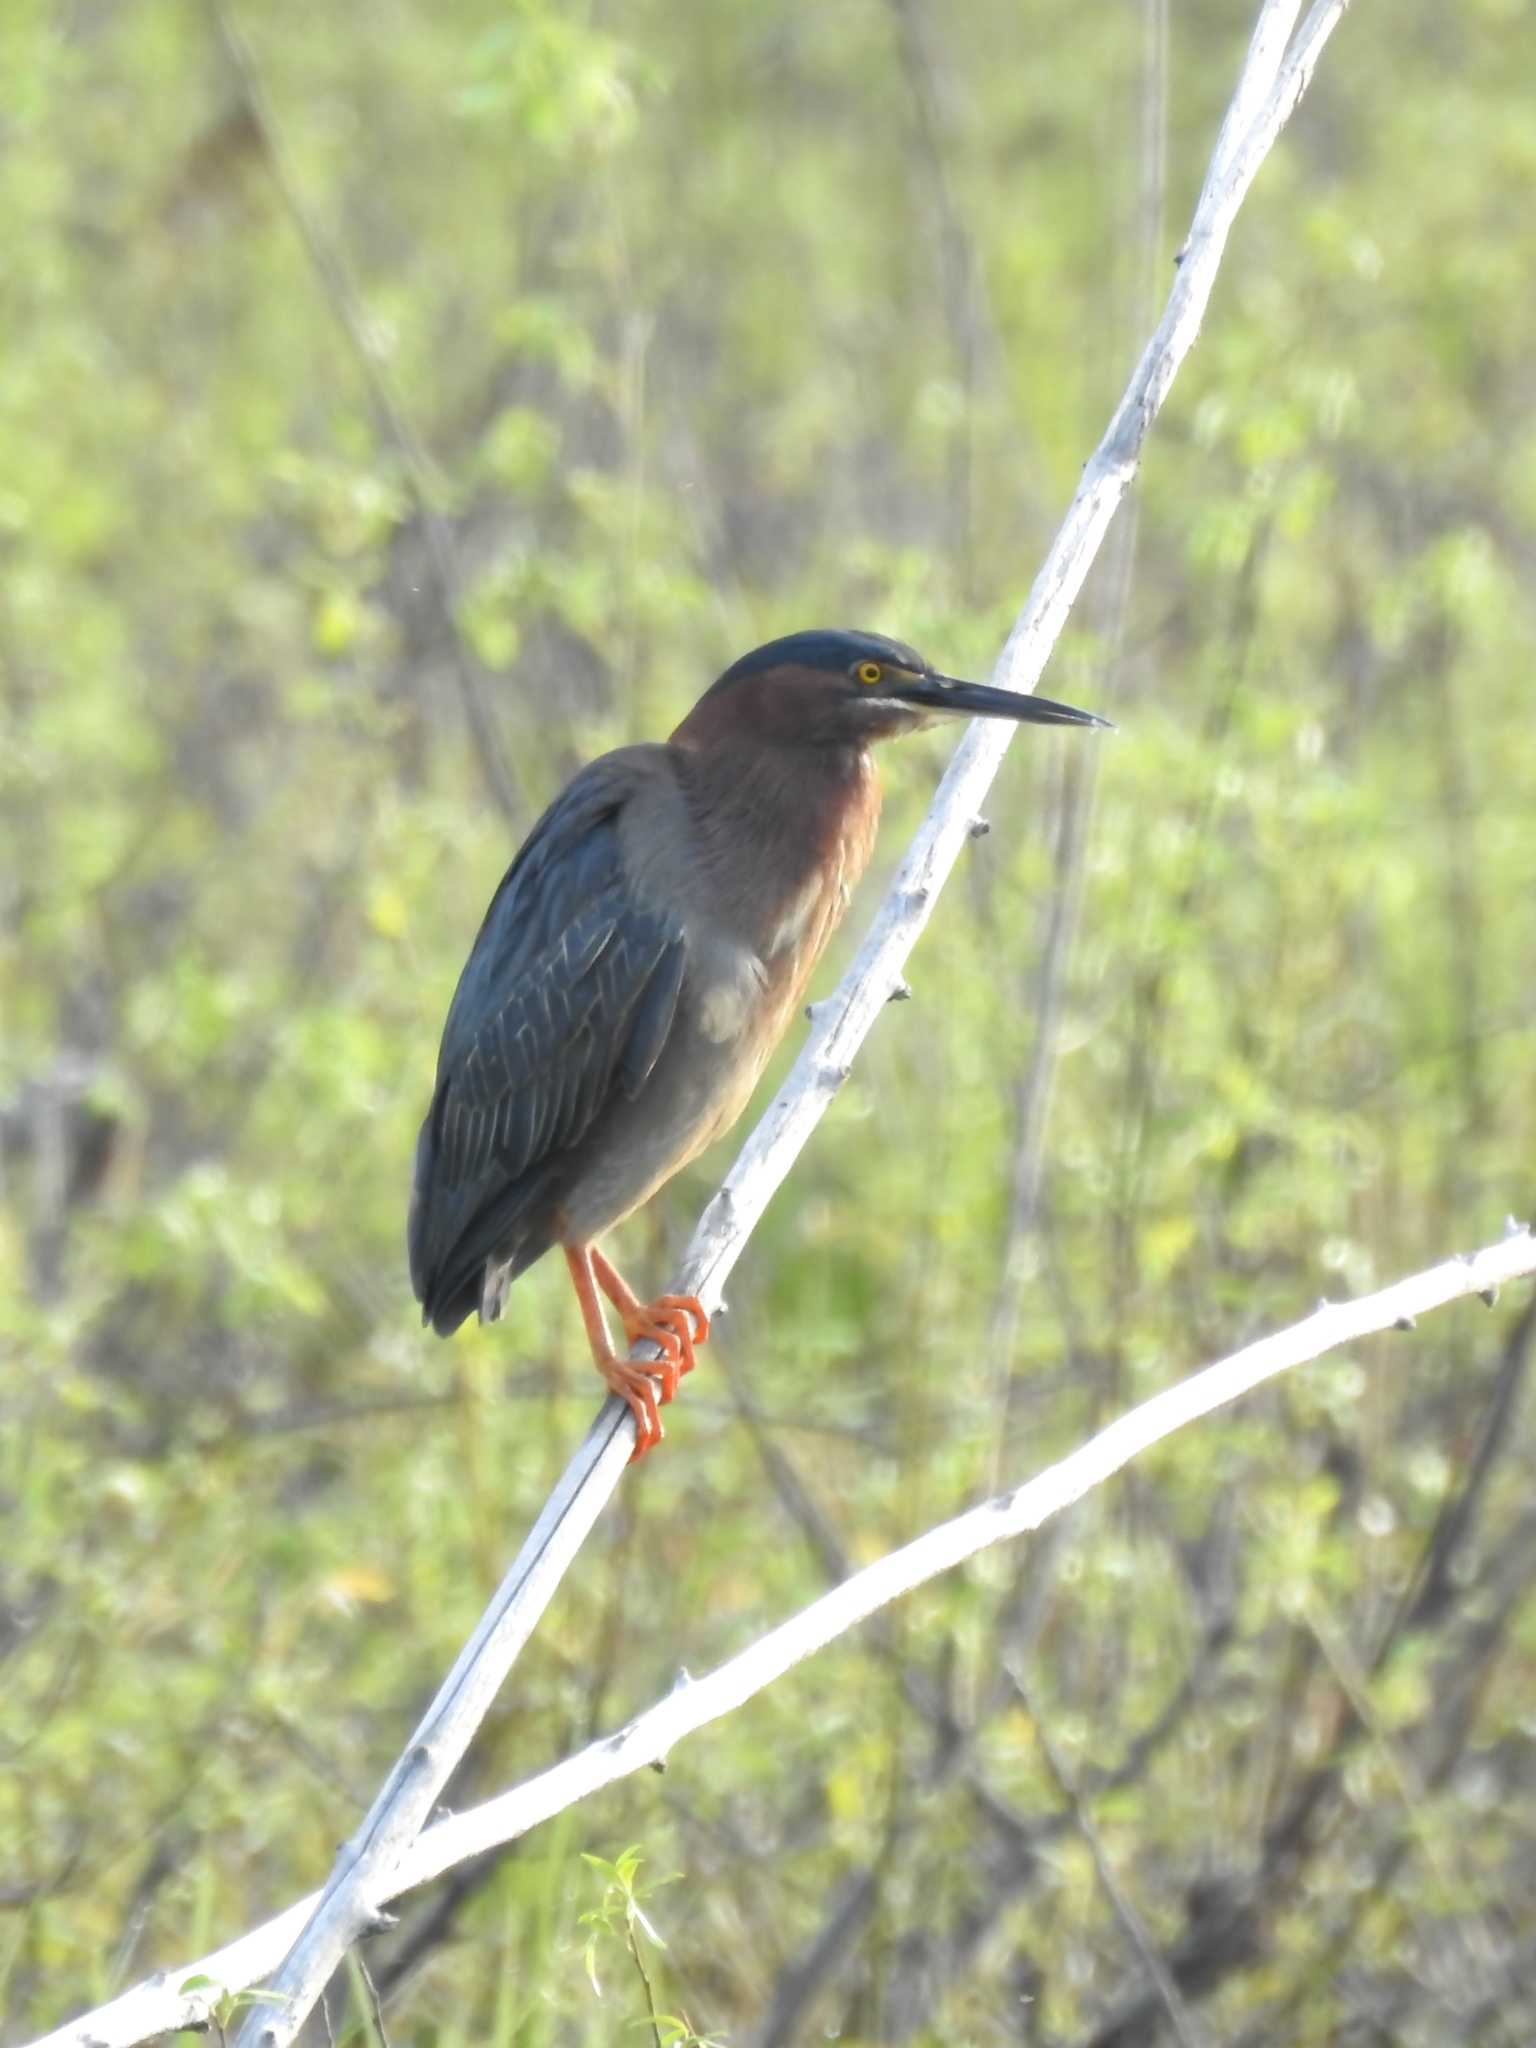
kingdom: Animalia
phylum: Chordata
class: Aves
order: Pelecaniformes
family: Ardeidae
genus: Butorides
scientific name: Butorides virescens
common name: Green heron
